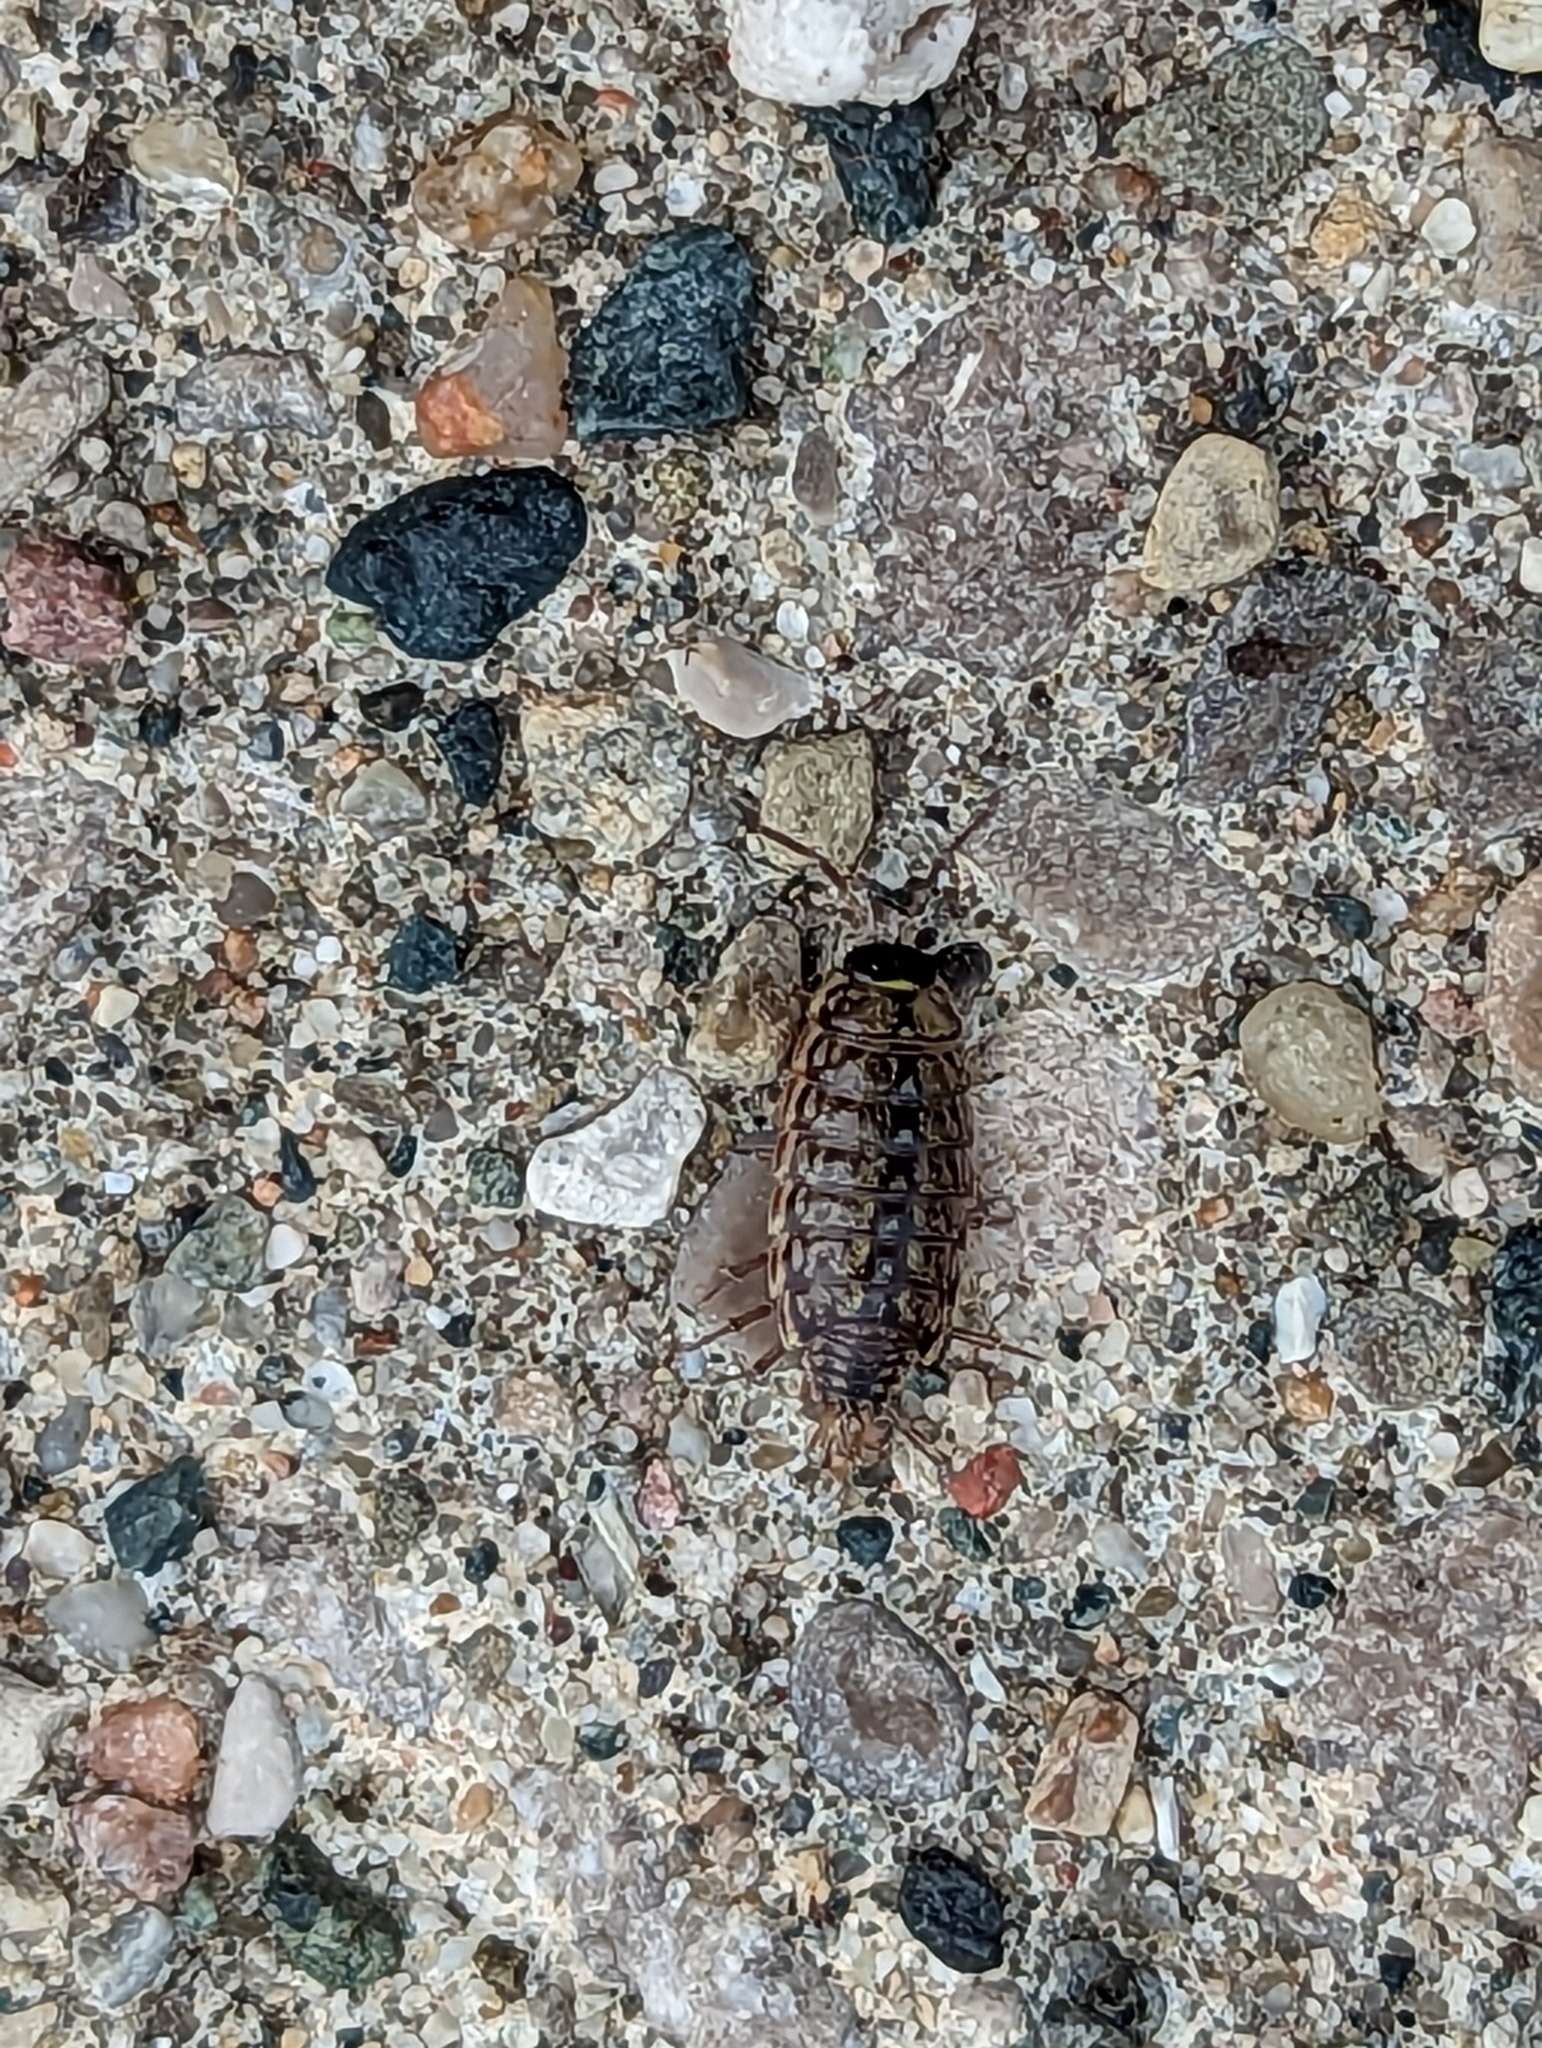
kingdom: Animalia
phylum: Arthropoda
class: Malacostraca
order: Isopoda
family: Philosciidae
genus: Philoscia
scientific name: Philoscia muscorum
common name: Common striped woodlouse
